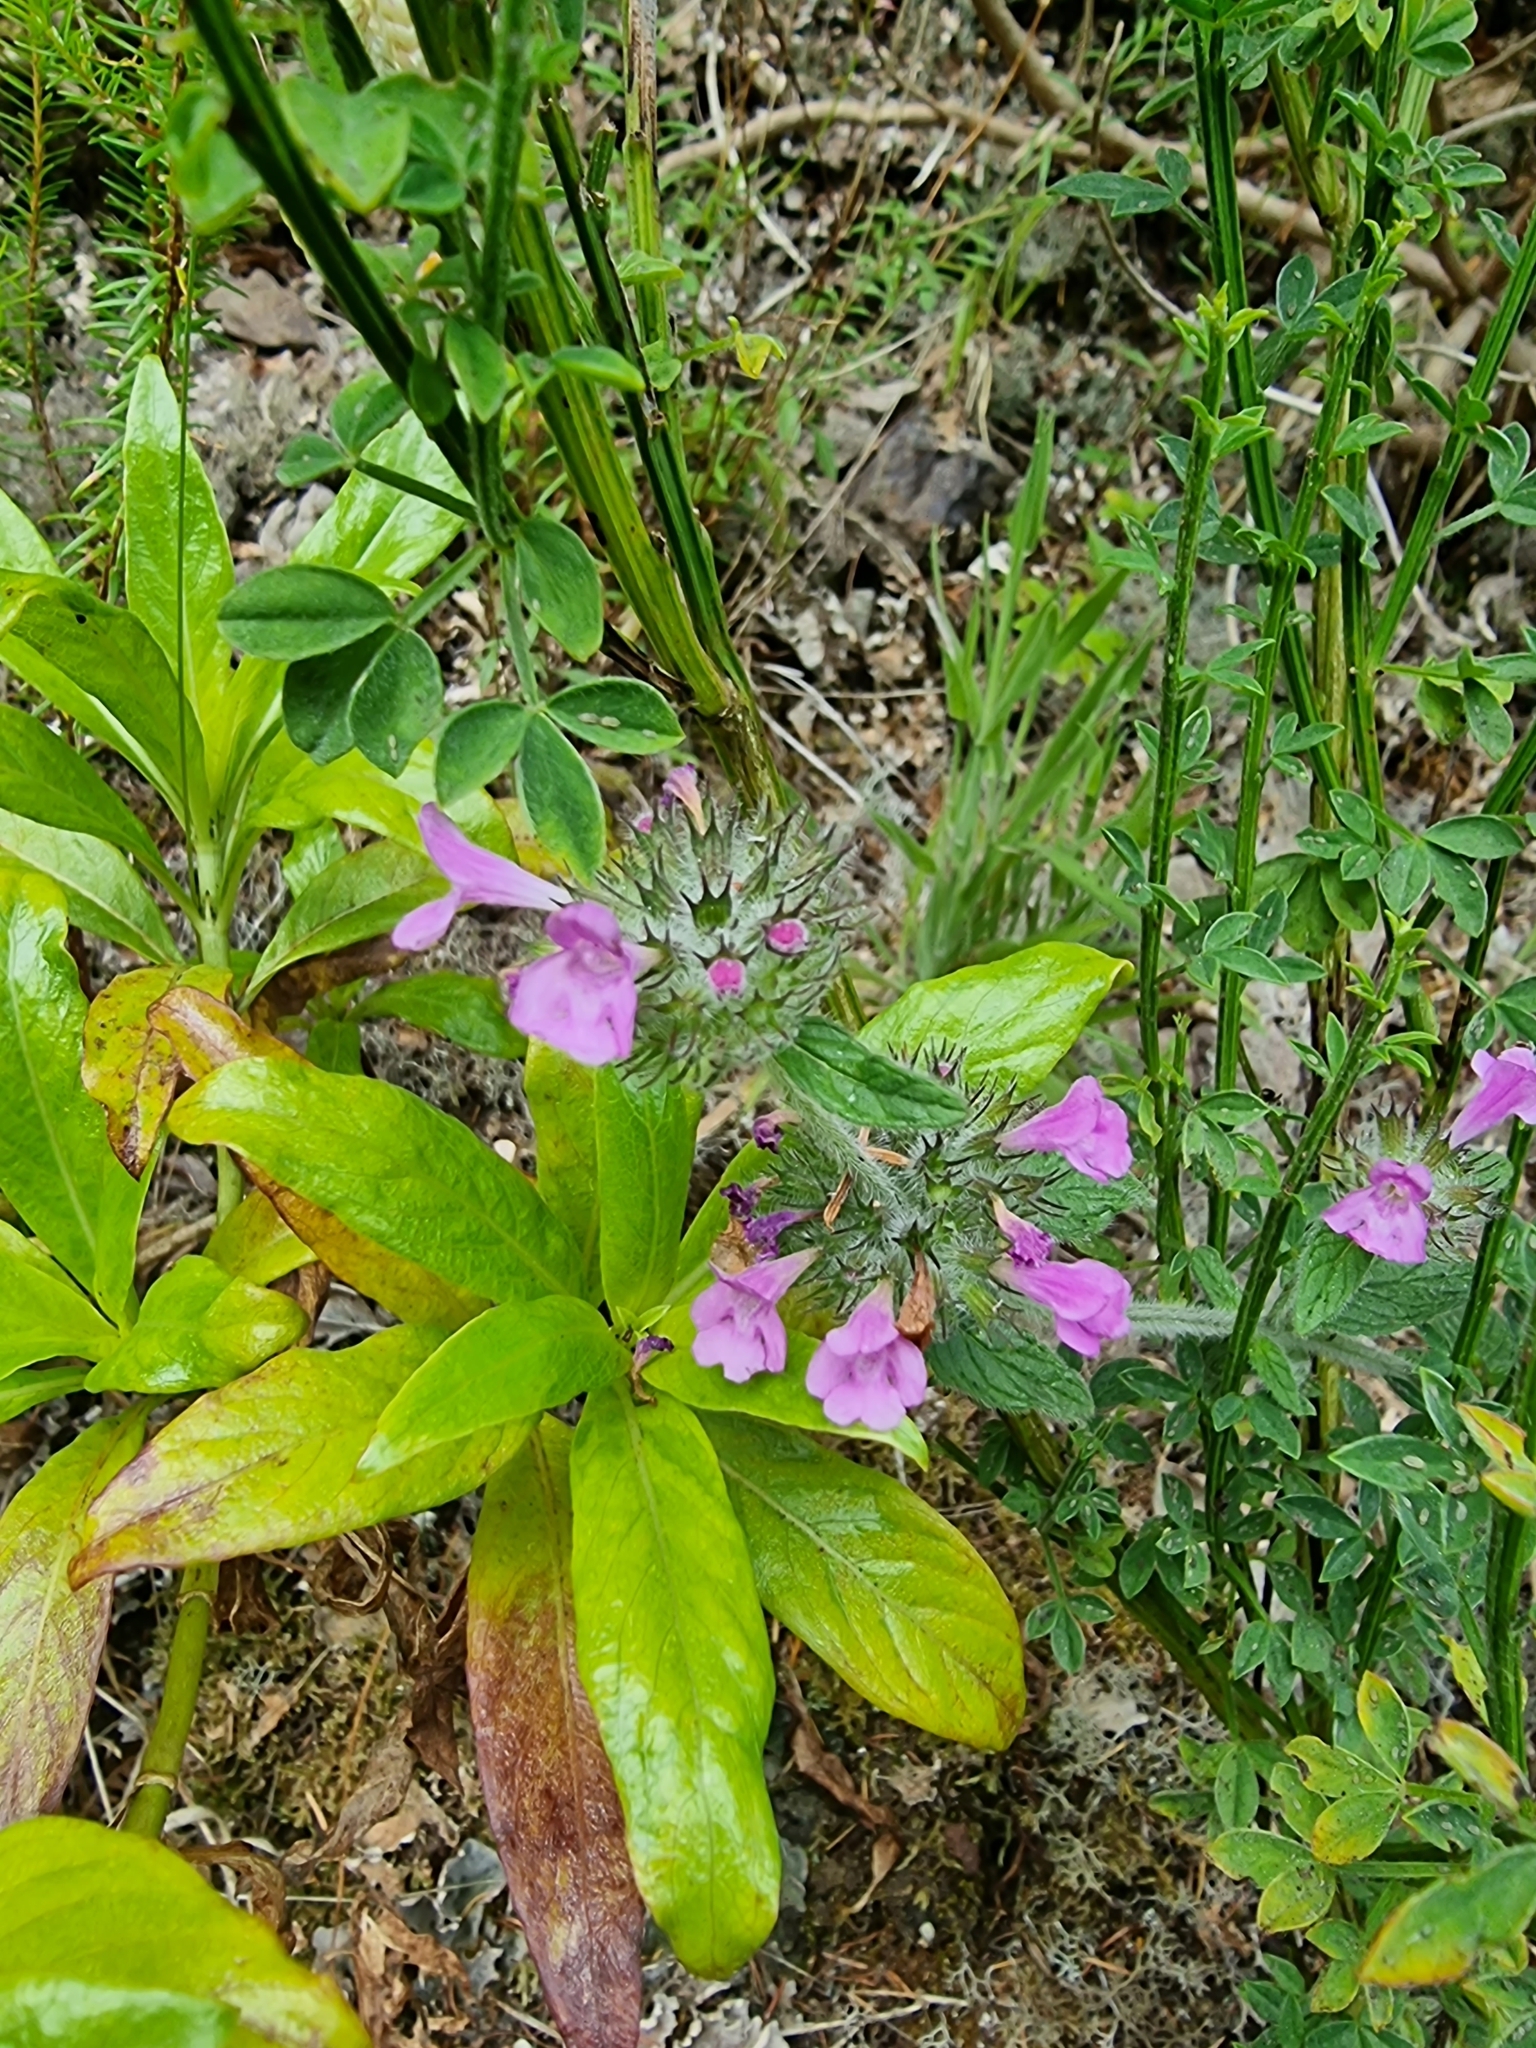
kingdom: Plantae
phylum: Tracheophyta
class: Magnoliopsida
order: Lamiales
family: Lamiaceae
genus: Clinopodium
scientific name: Clinopodium vulgare
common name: Wild basil
